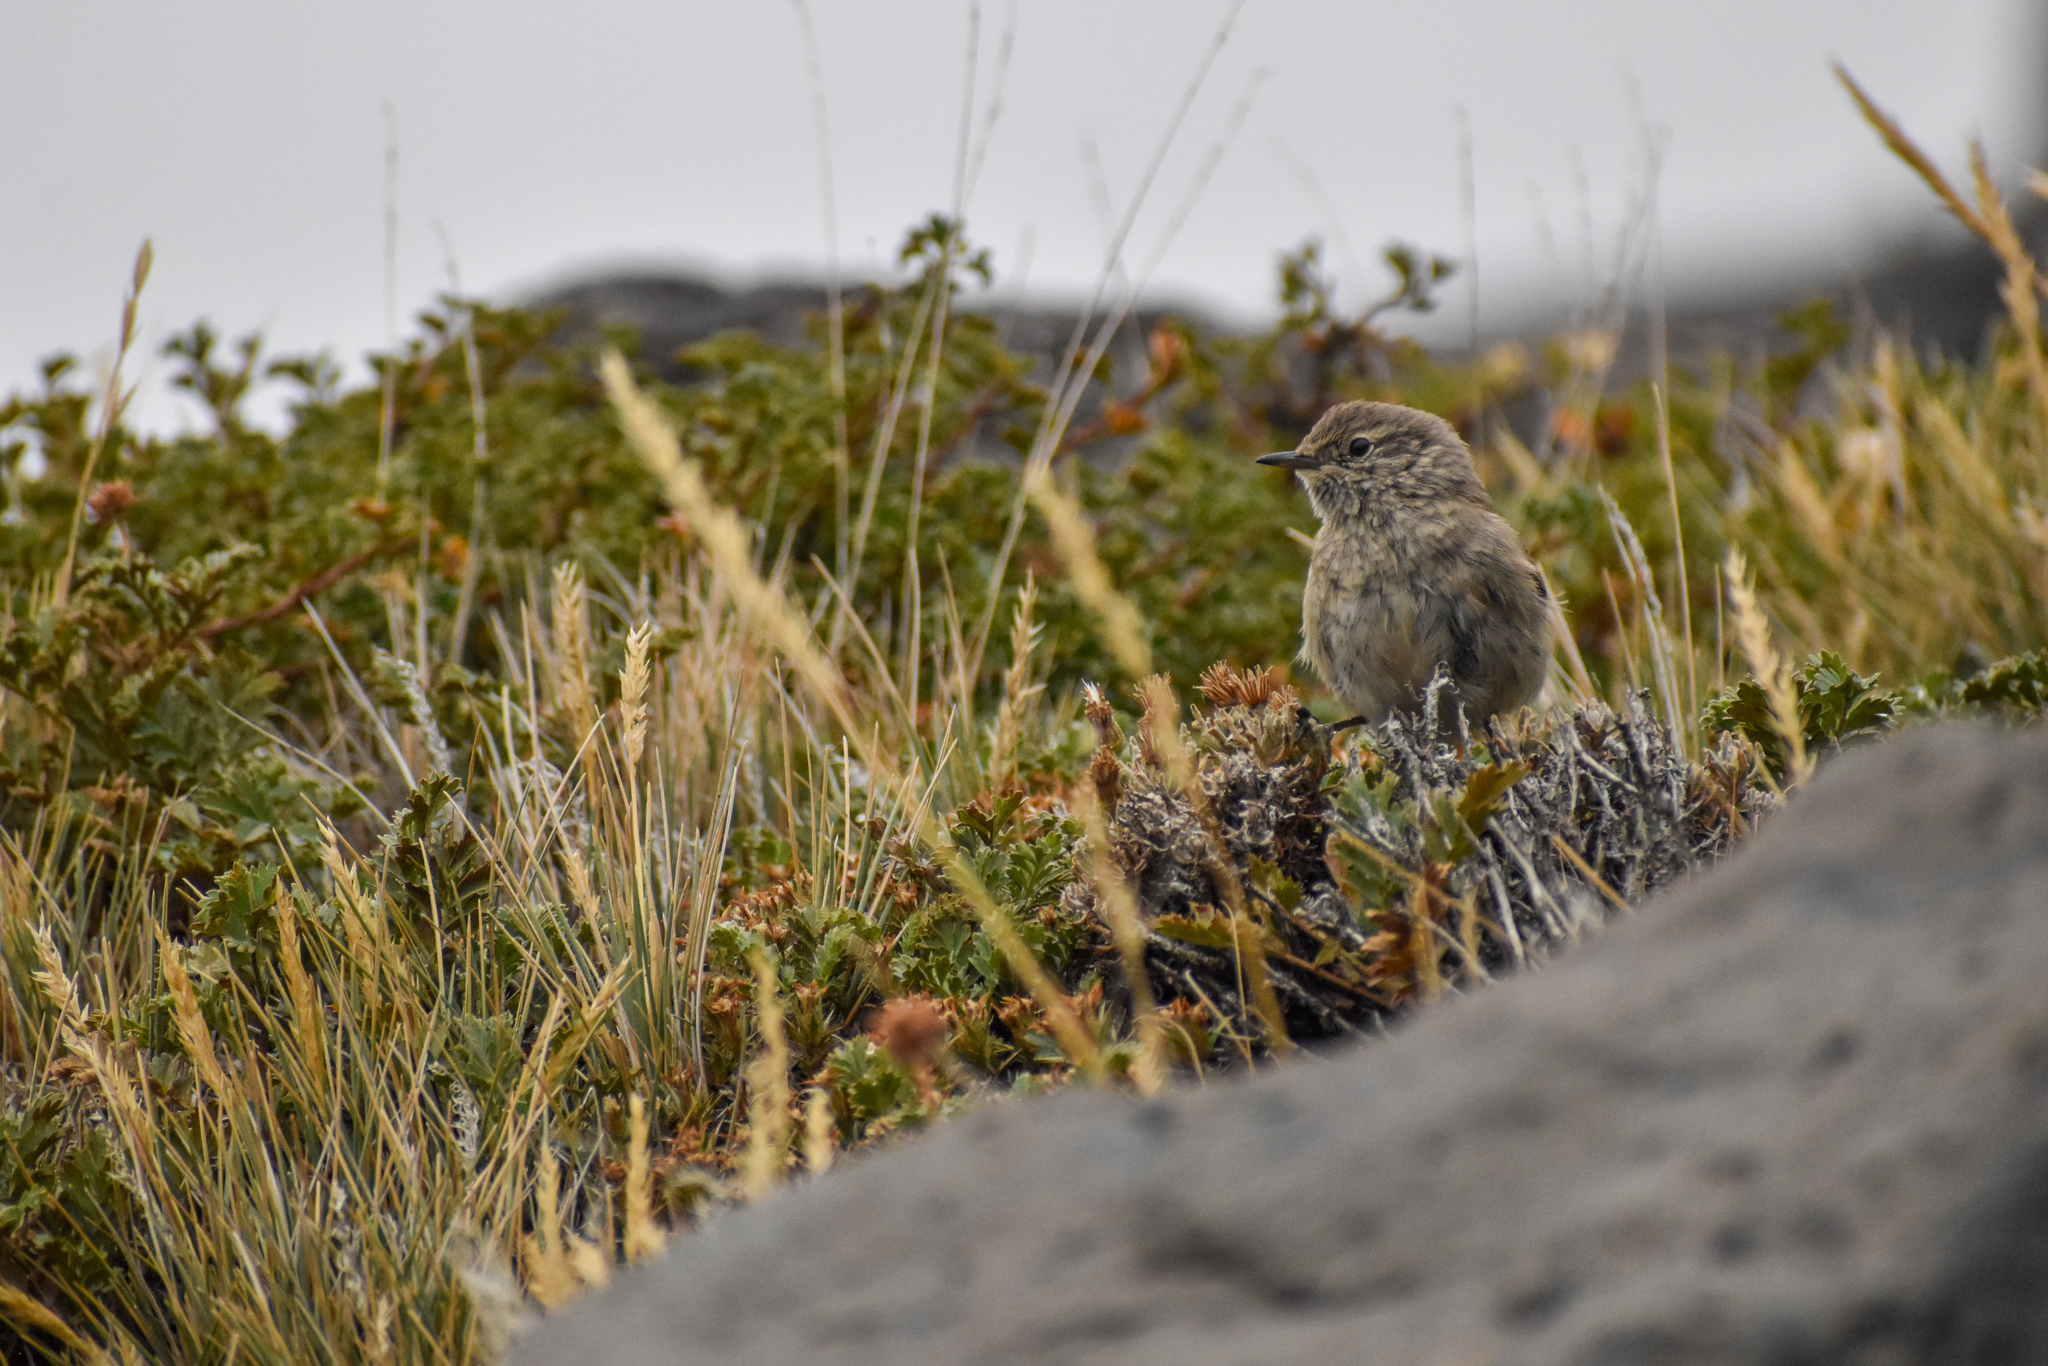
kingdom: Animalia
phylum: Chordata
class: Aves
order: Passeriformes
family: Furnariidae
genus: Asthenes
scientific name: Asthenes modesta
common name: Cordilleran canastero
